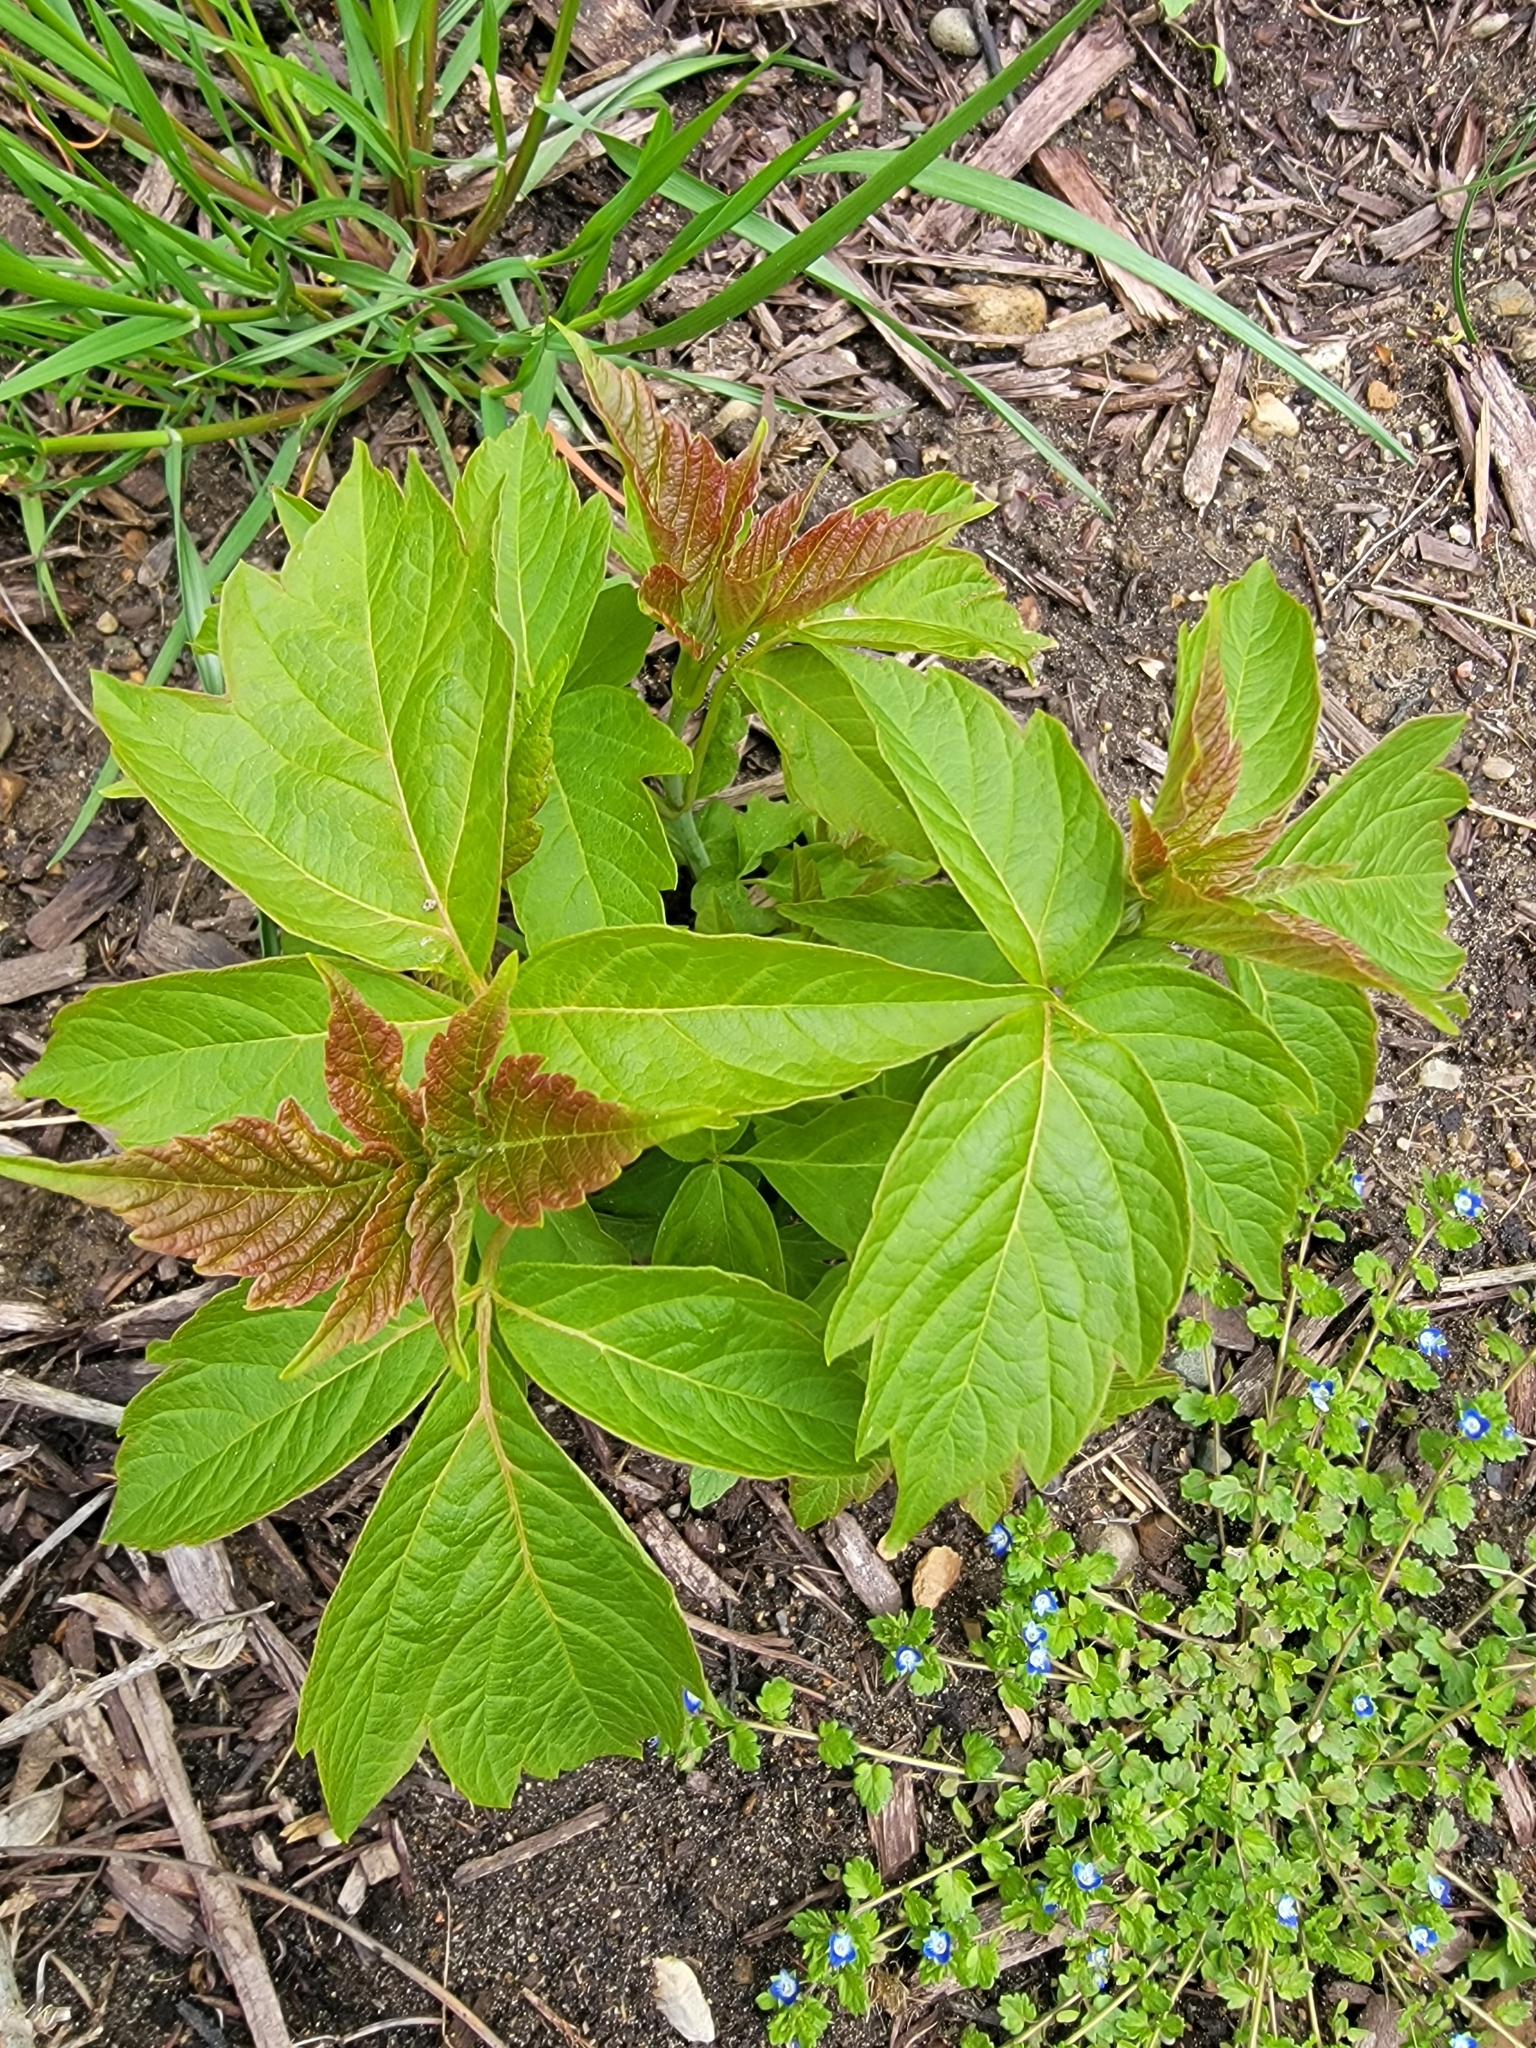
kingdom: Plantae
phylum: Tracheophyta
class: Magnoliopsida
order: Sapindales
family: Sapindaceae
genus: Acer
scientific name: Acer negundo
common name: Ashleaf maple
